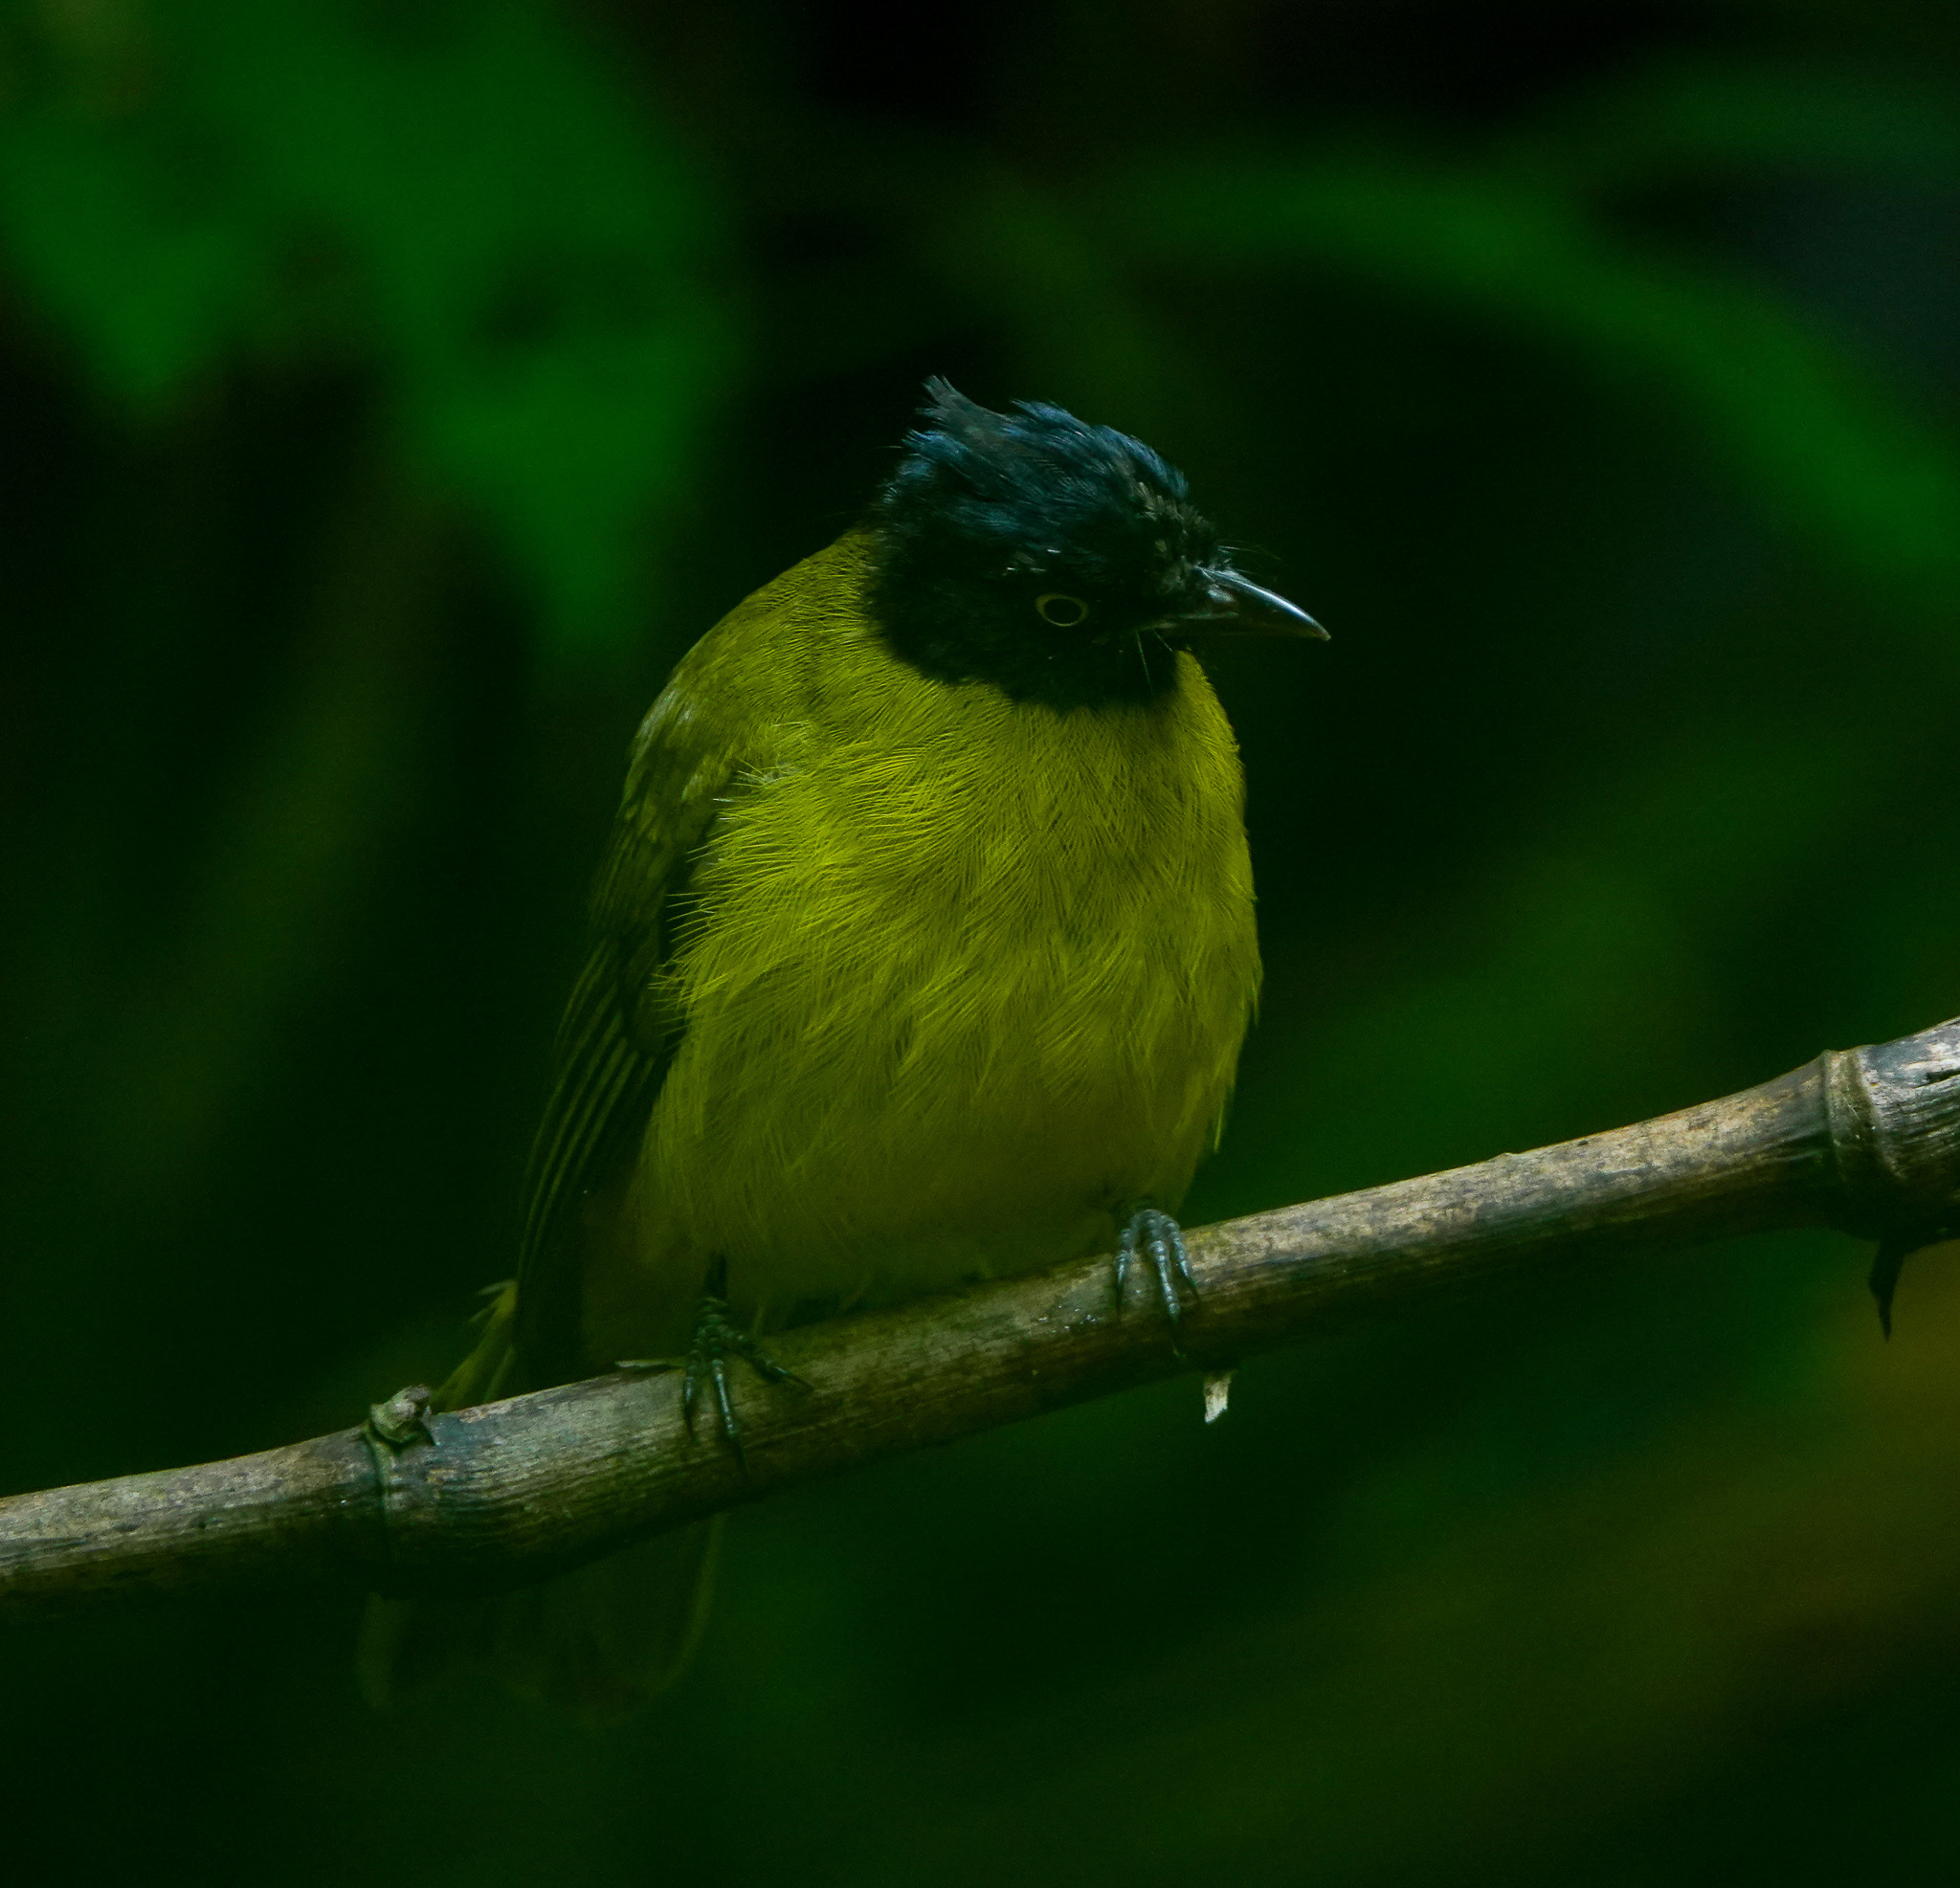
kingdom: Animalia
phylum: Chordata
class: Aves
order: Passeriformes
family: Pycnonotidae
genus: Pycnonotus
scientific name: Pycnonotus flaviventris
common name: Black-crested bulbul
